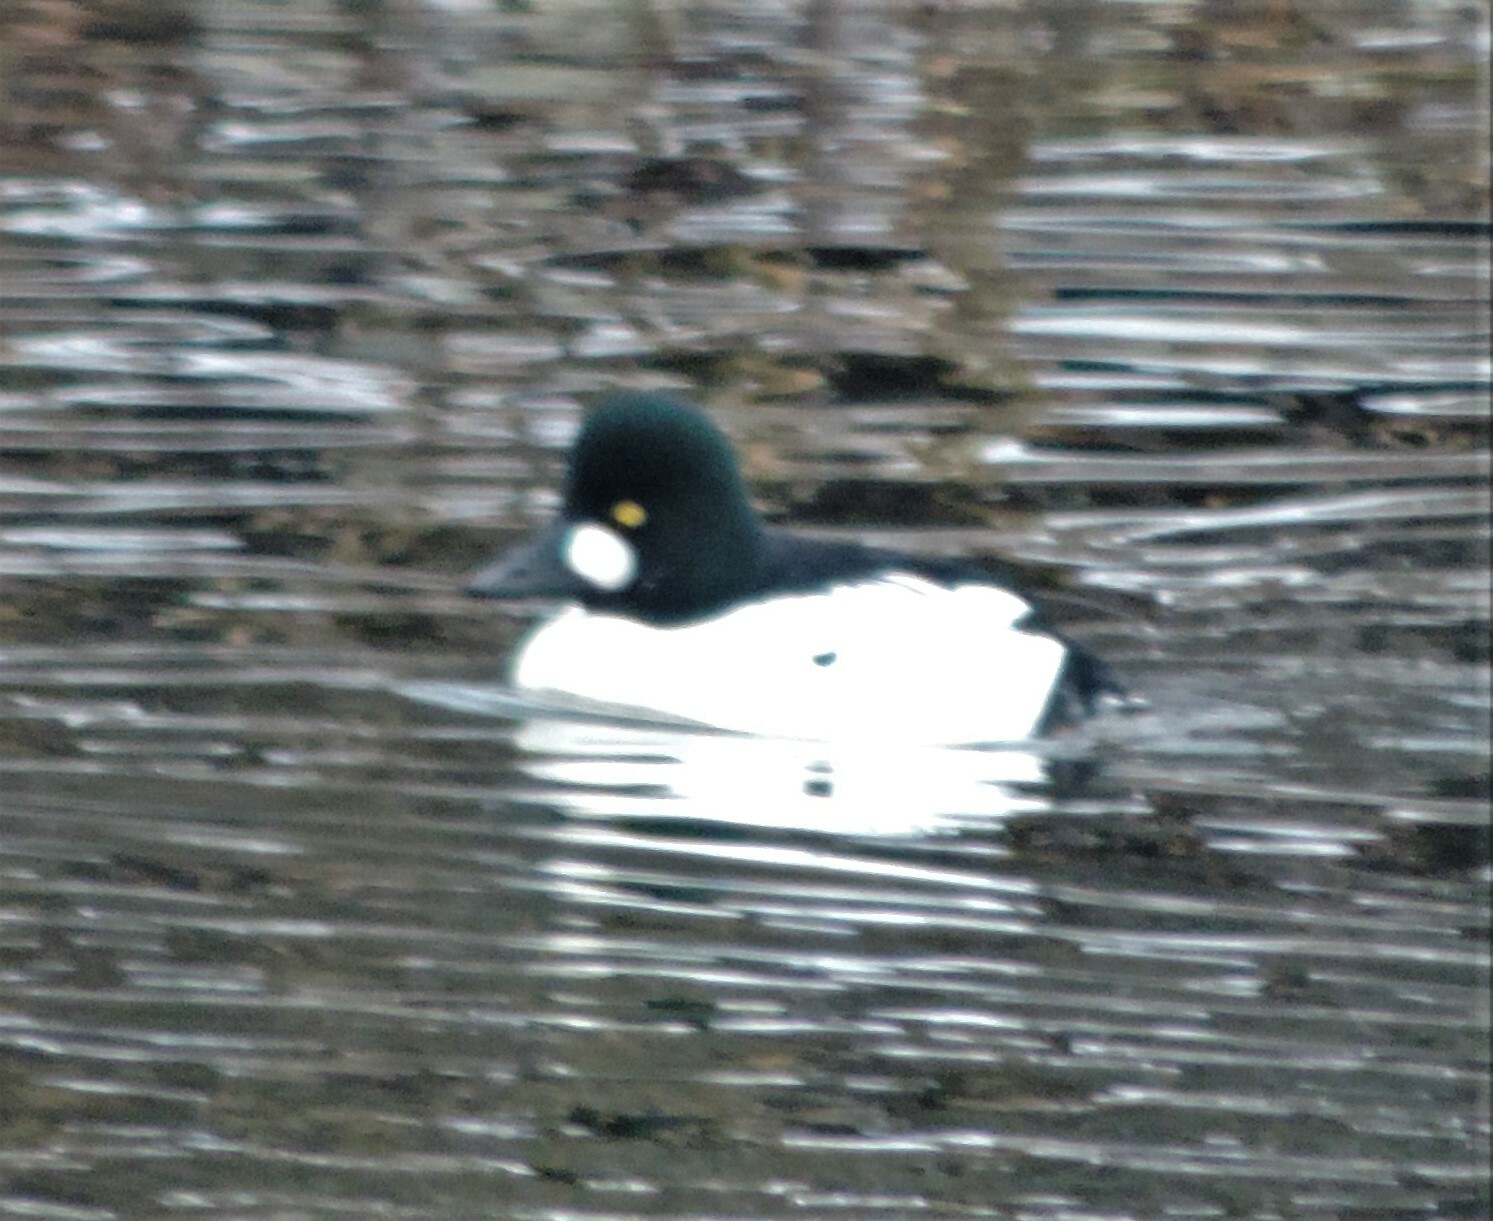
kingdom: Animalia
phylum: Chordata
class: Aves
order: Anseriformes
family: Anatidae
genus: Bucephala
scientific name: Bucephala clangula
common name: Common goldeneye
